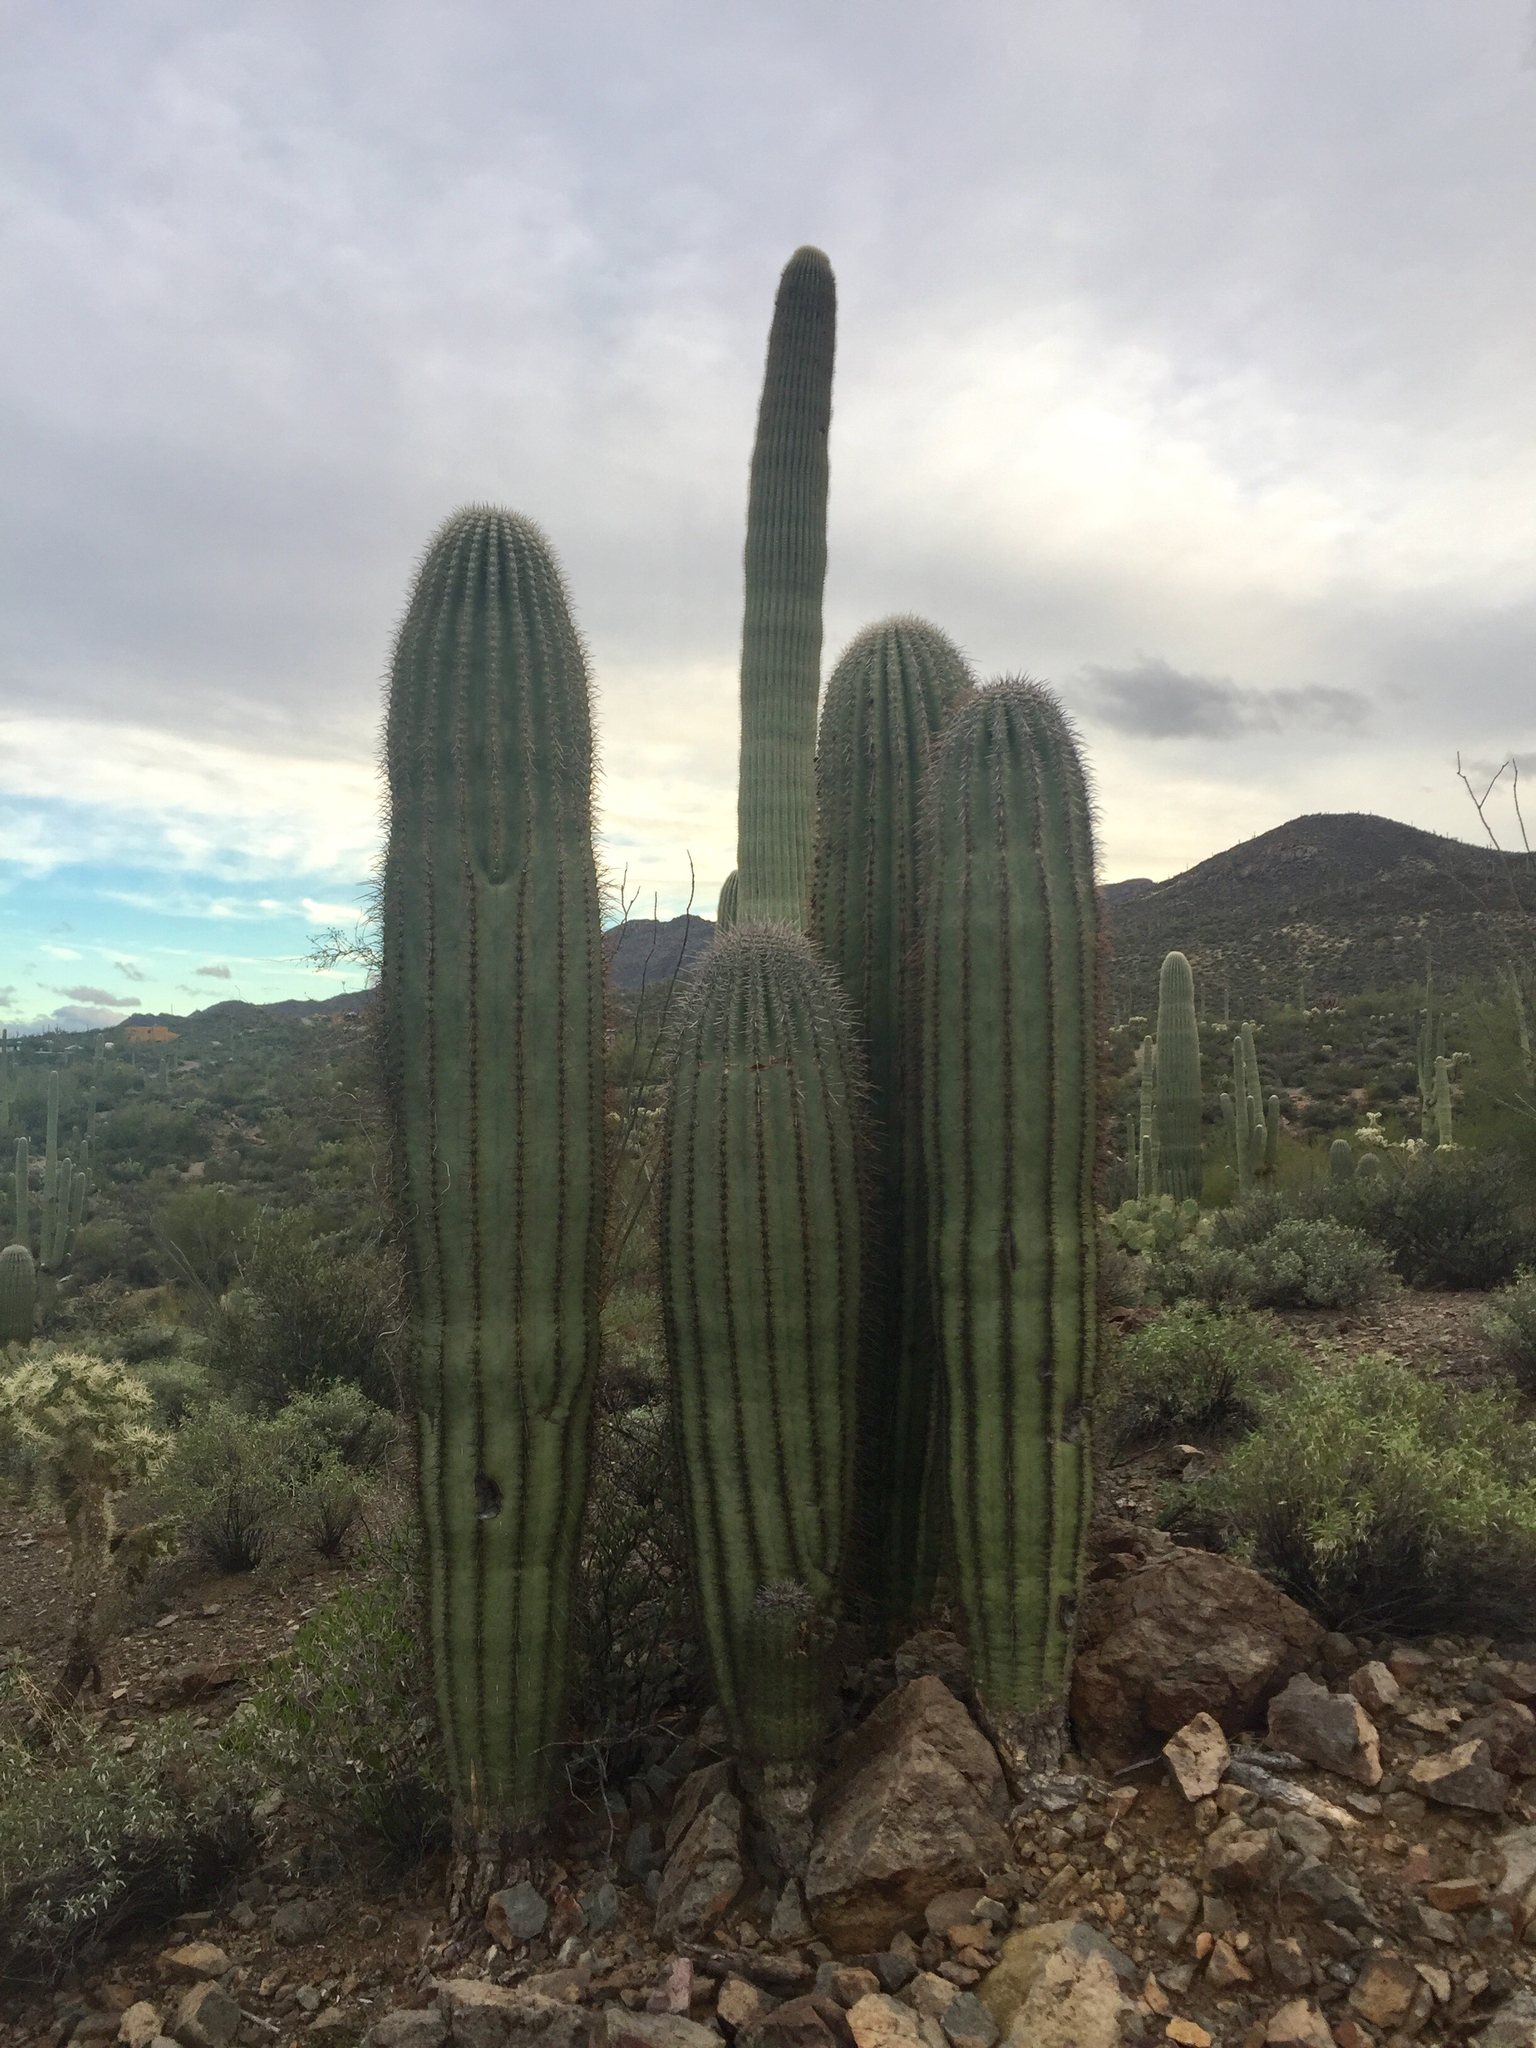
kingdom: Plantae
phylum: Tracheophyta
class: Magnoliopsida
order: Caryophyllales
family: Cactaceae
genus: Carnegiea
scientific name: Carnegiea gigantea
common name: Saguaro
